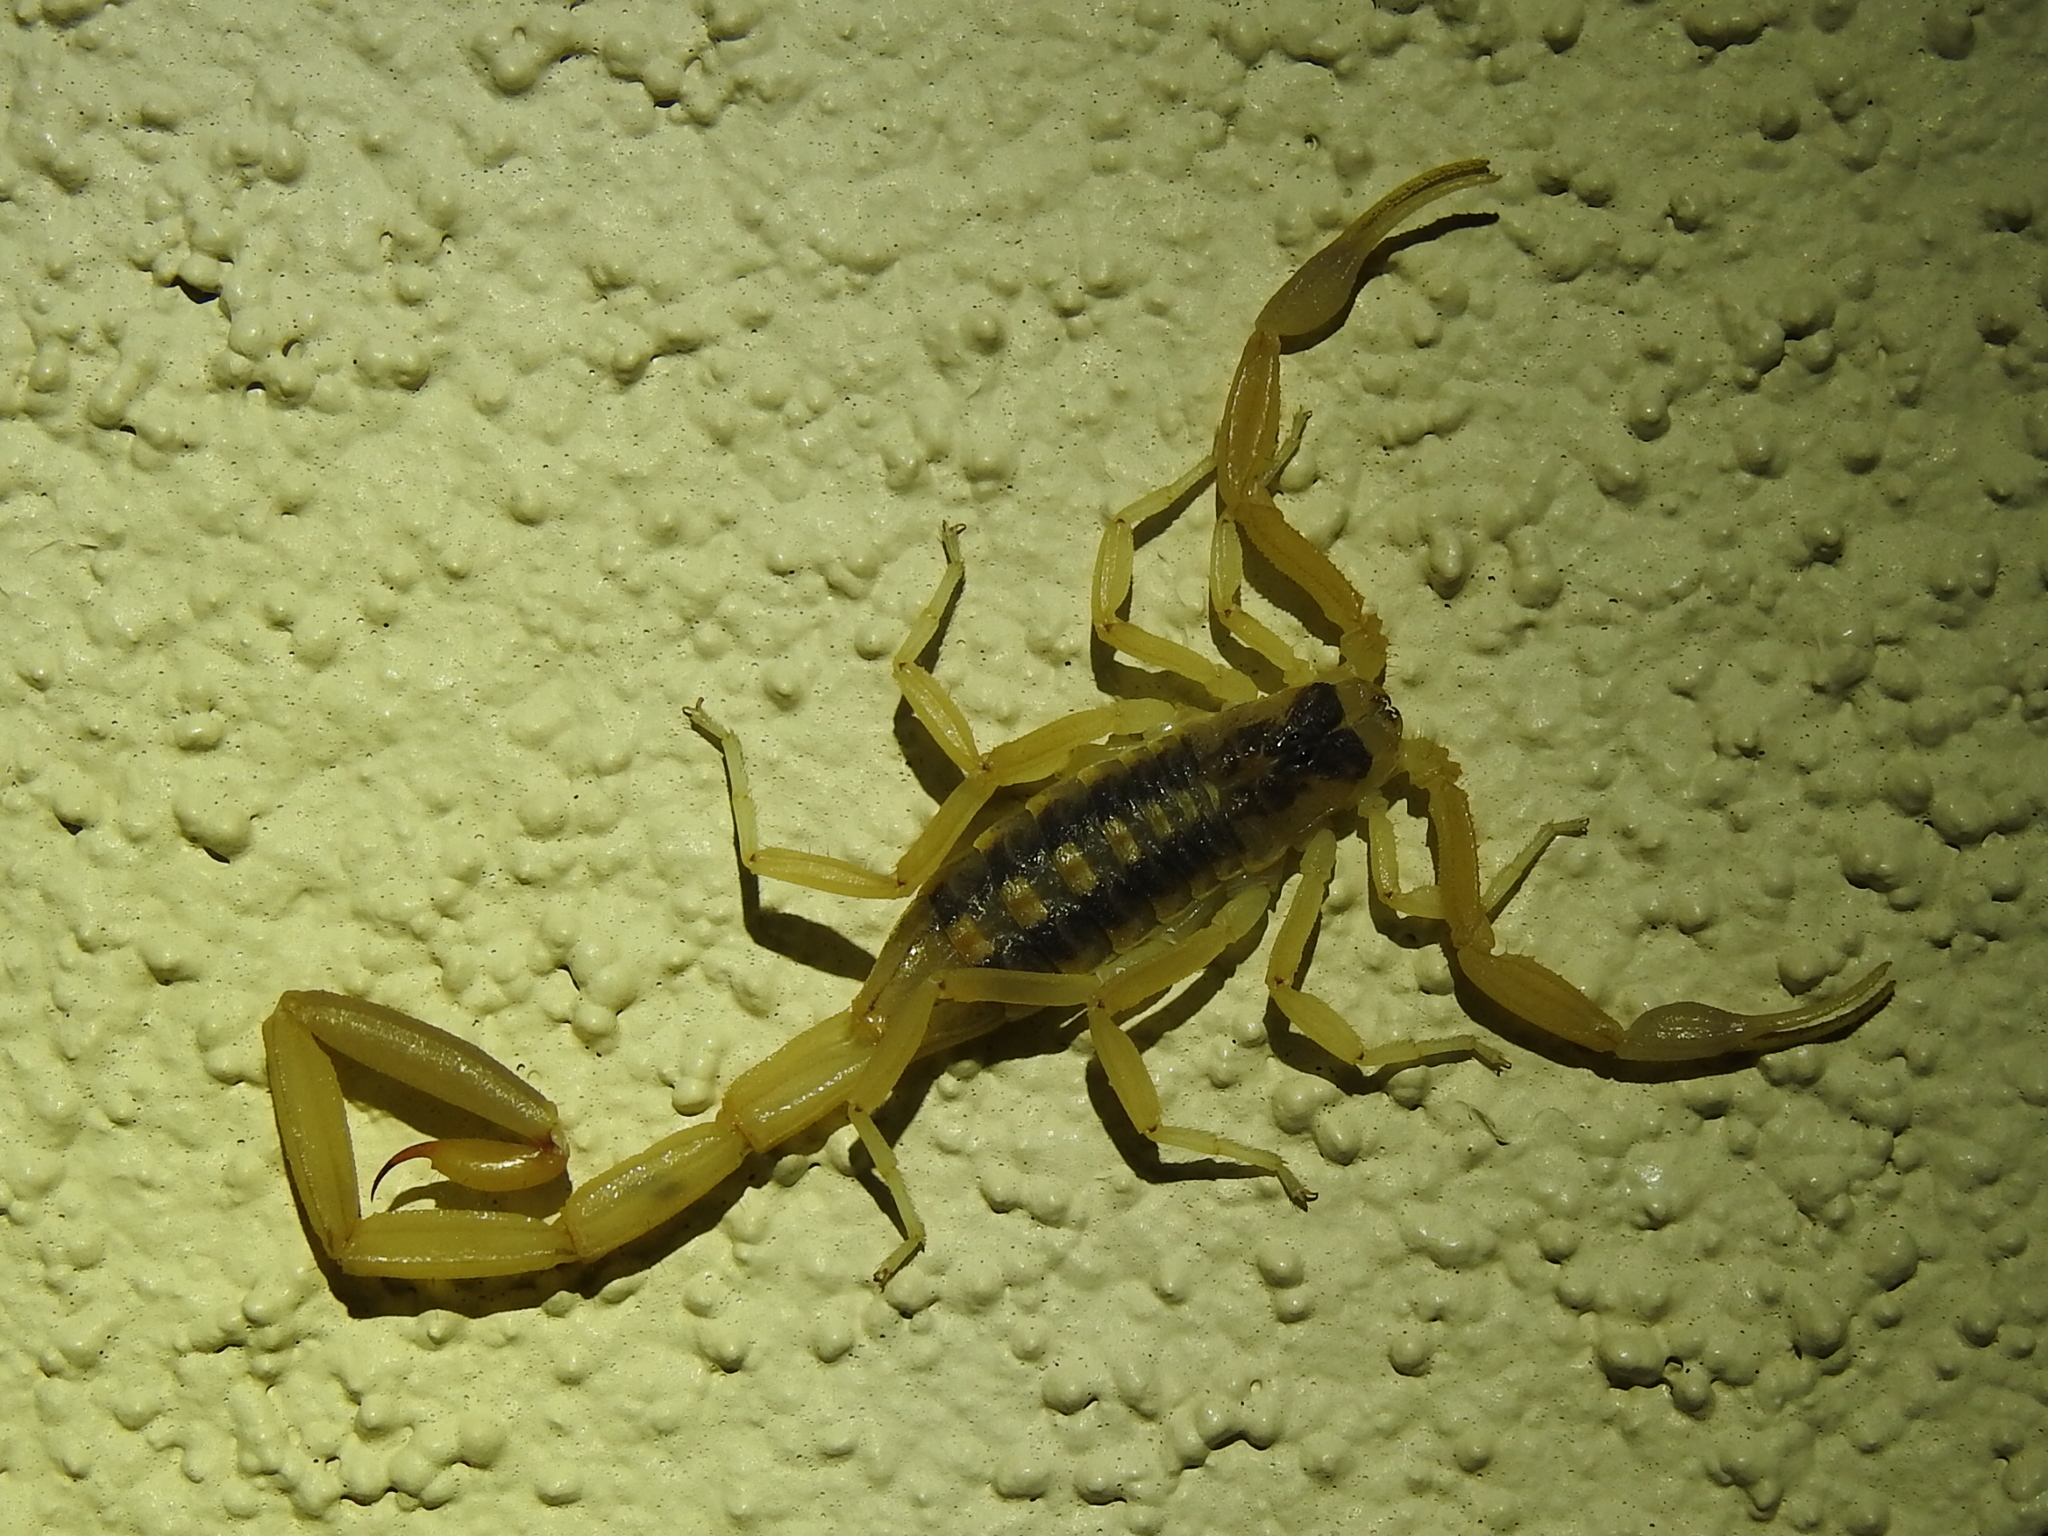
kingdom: Animalia
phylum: Arthropoda
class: Arachnida
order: Scorpiones
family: Buthidae
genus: Centruroides
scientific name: Centruroides vittatus
